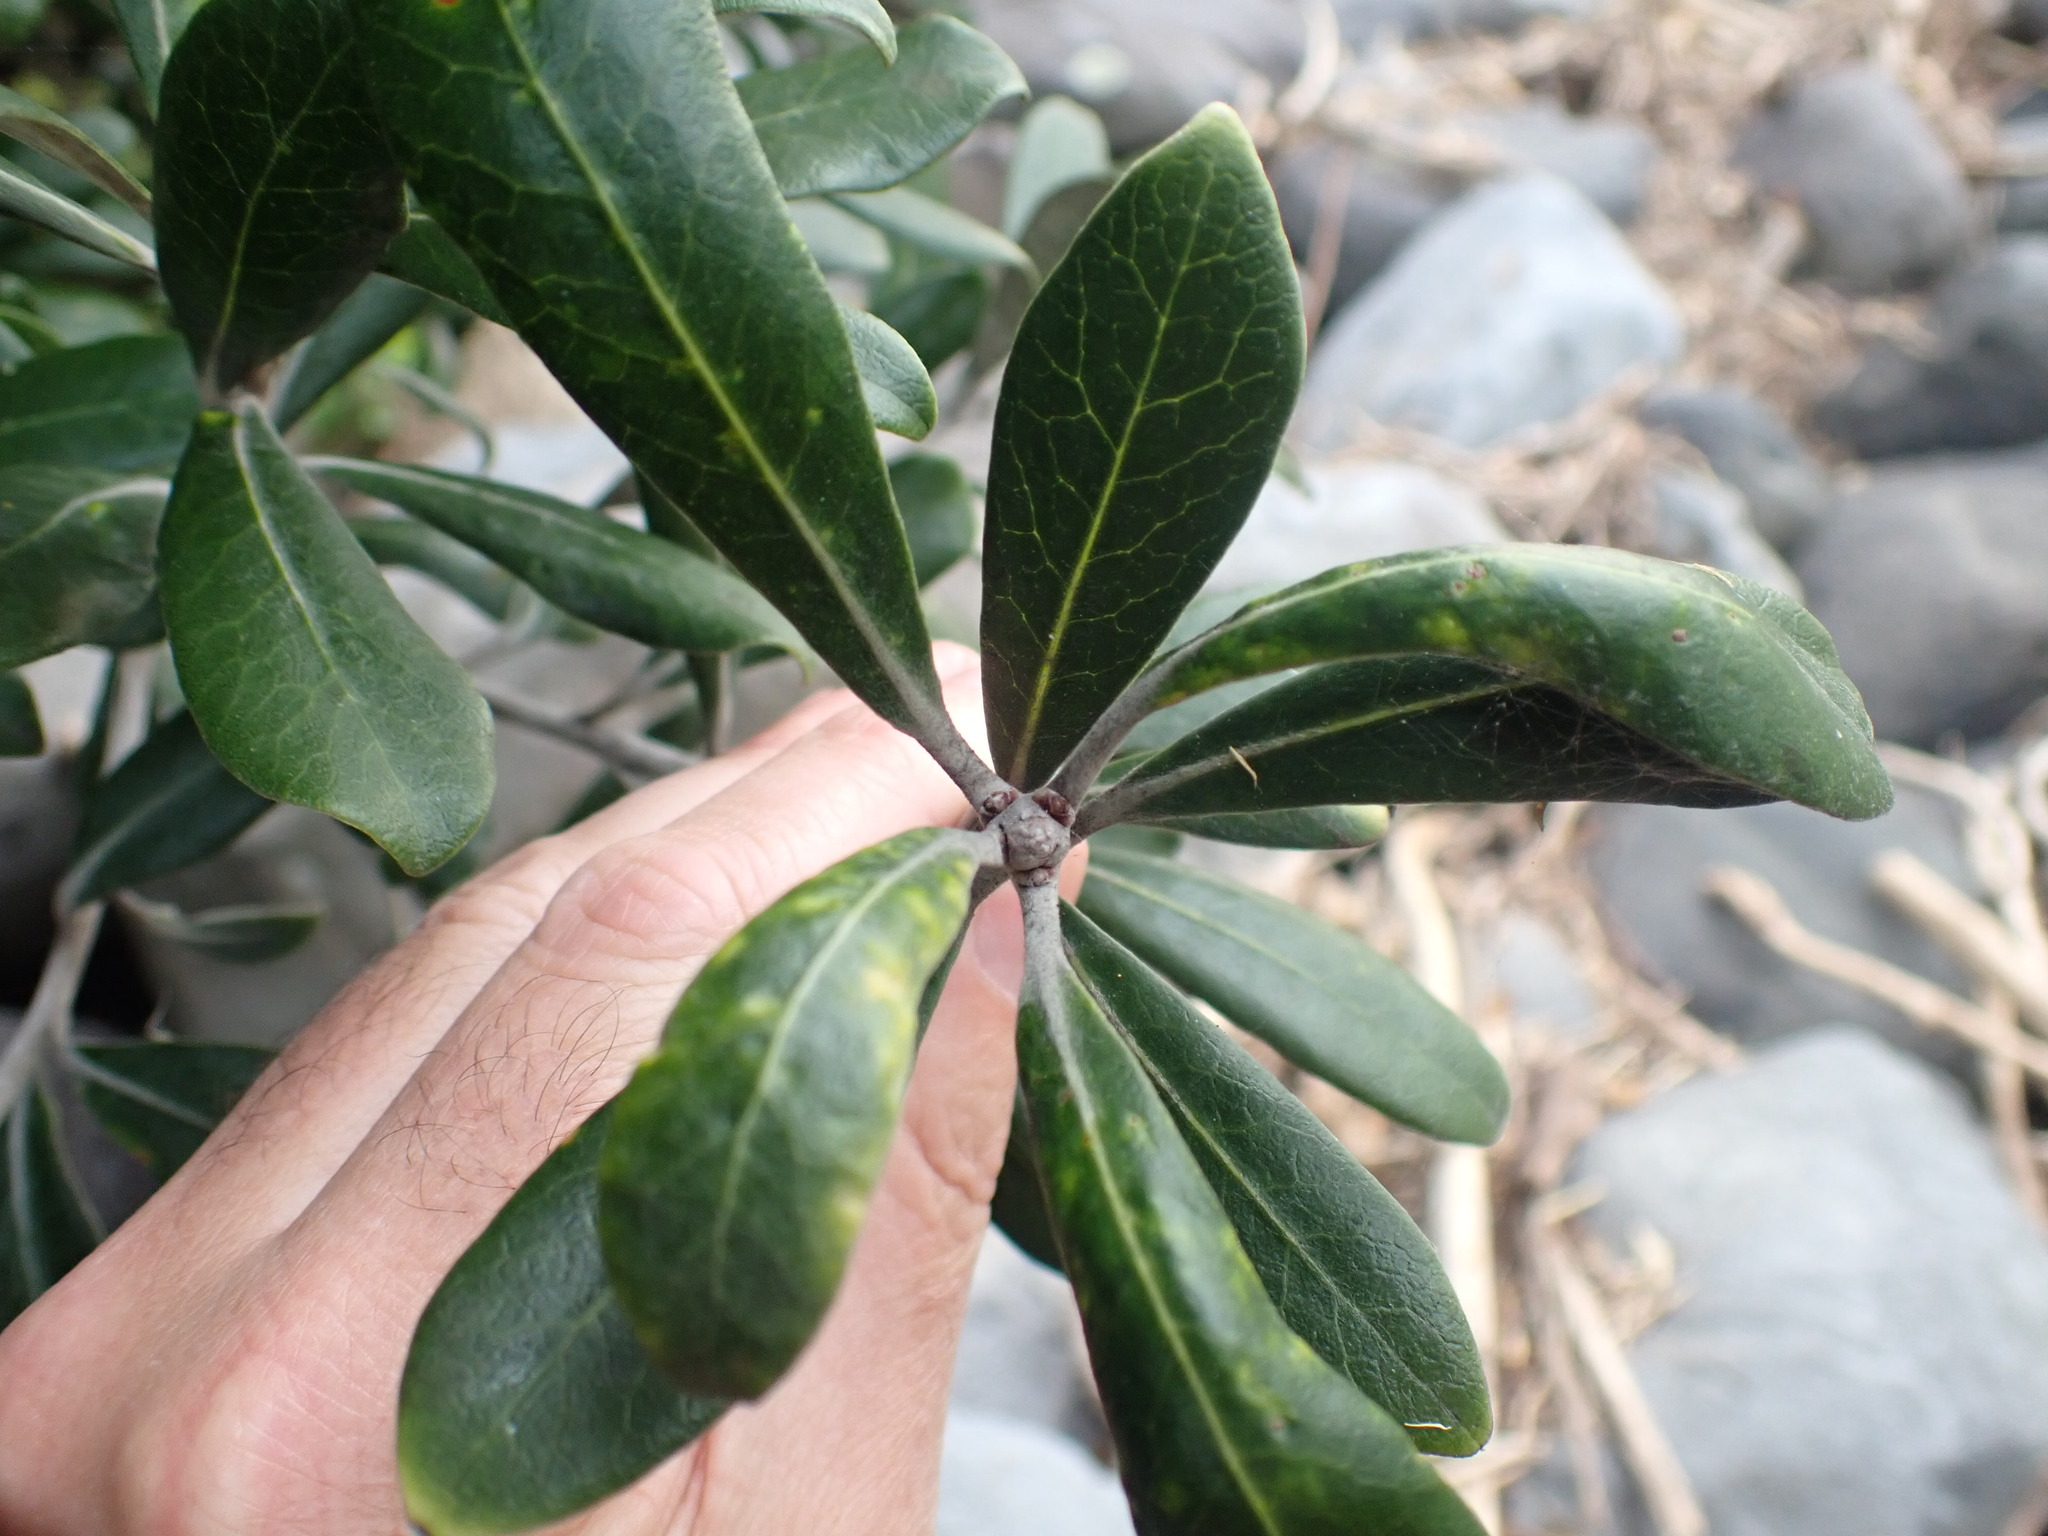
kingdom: Plantae
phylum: Tracheophyta
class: Magnoliopsida
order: Apiales
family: Pittosporaceae
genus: Pittosporum
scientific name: Pittosporum crassifolium
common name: Karo
